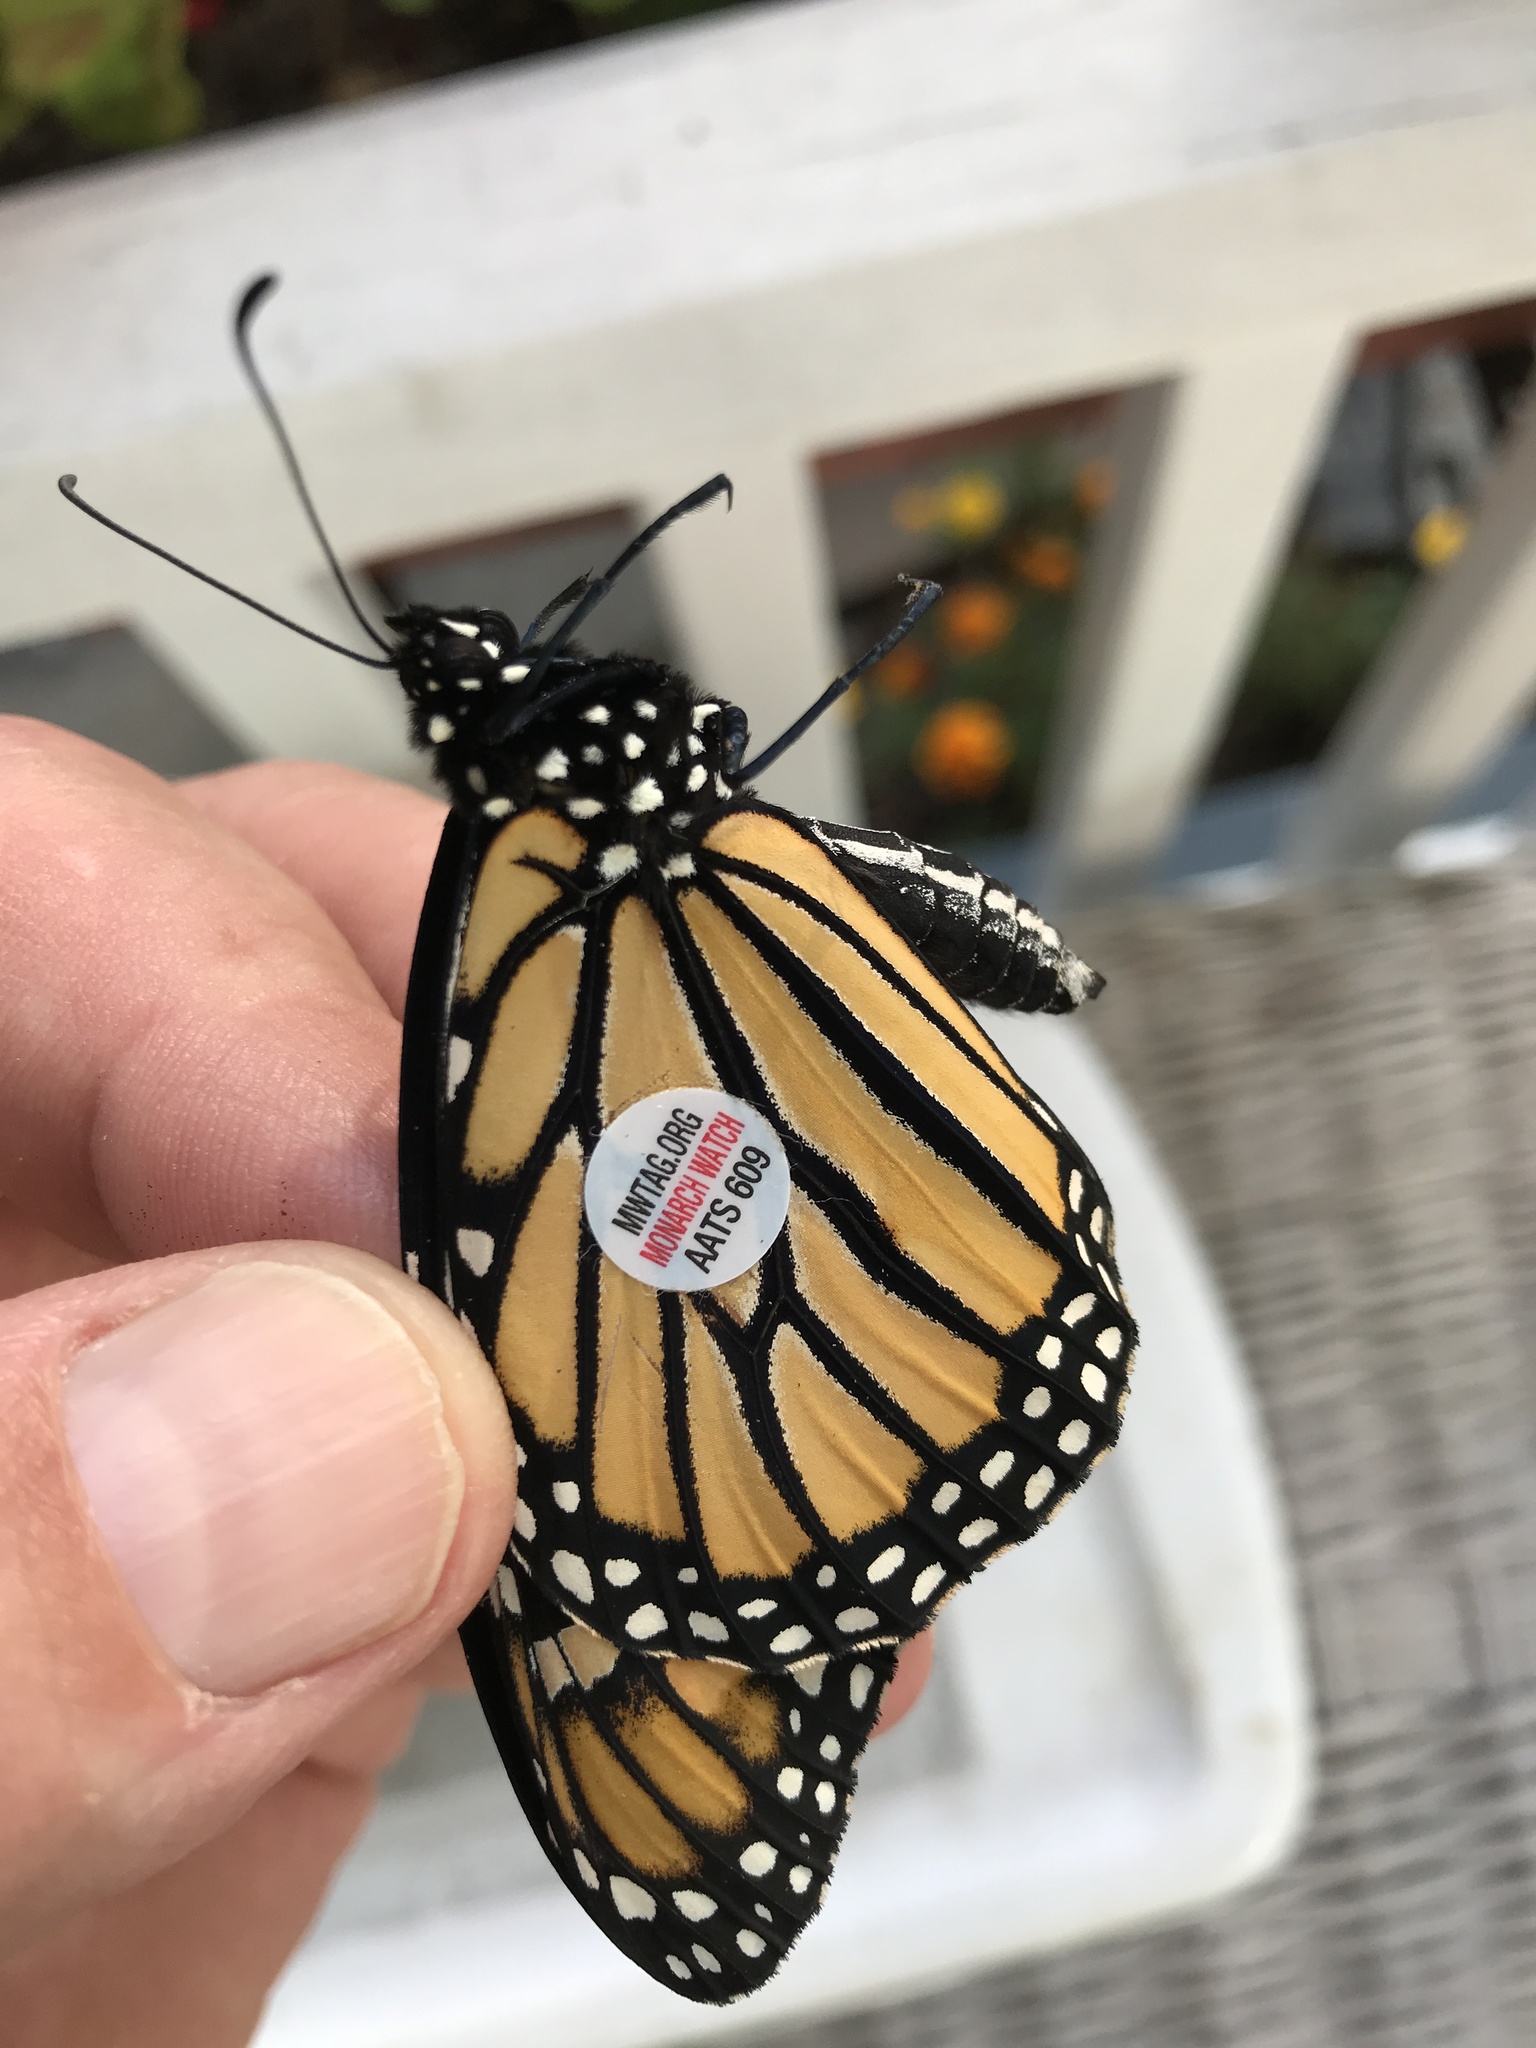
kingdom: Animalia
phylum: Arthropoda
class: Insecta
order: Lepidoptera
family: Nymphalidae
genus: Danaus
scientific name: Danaus plexippus
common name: Monarch
